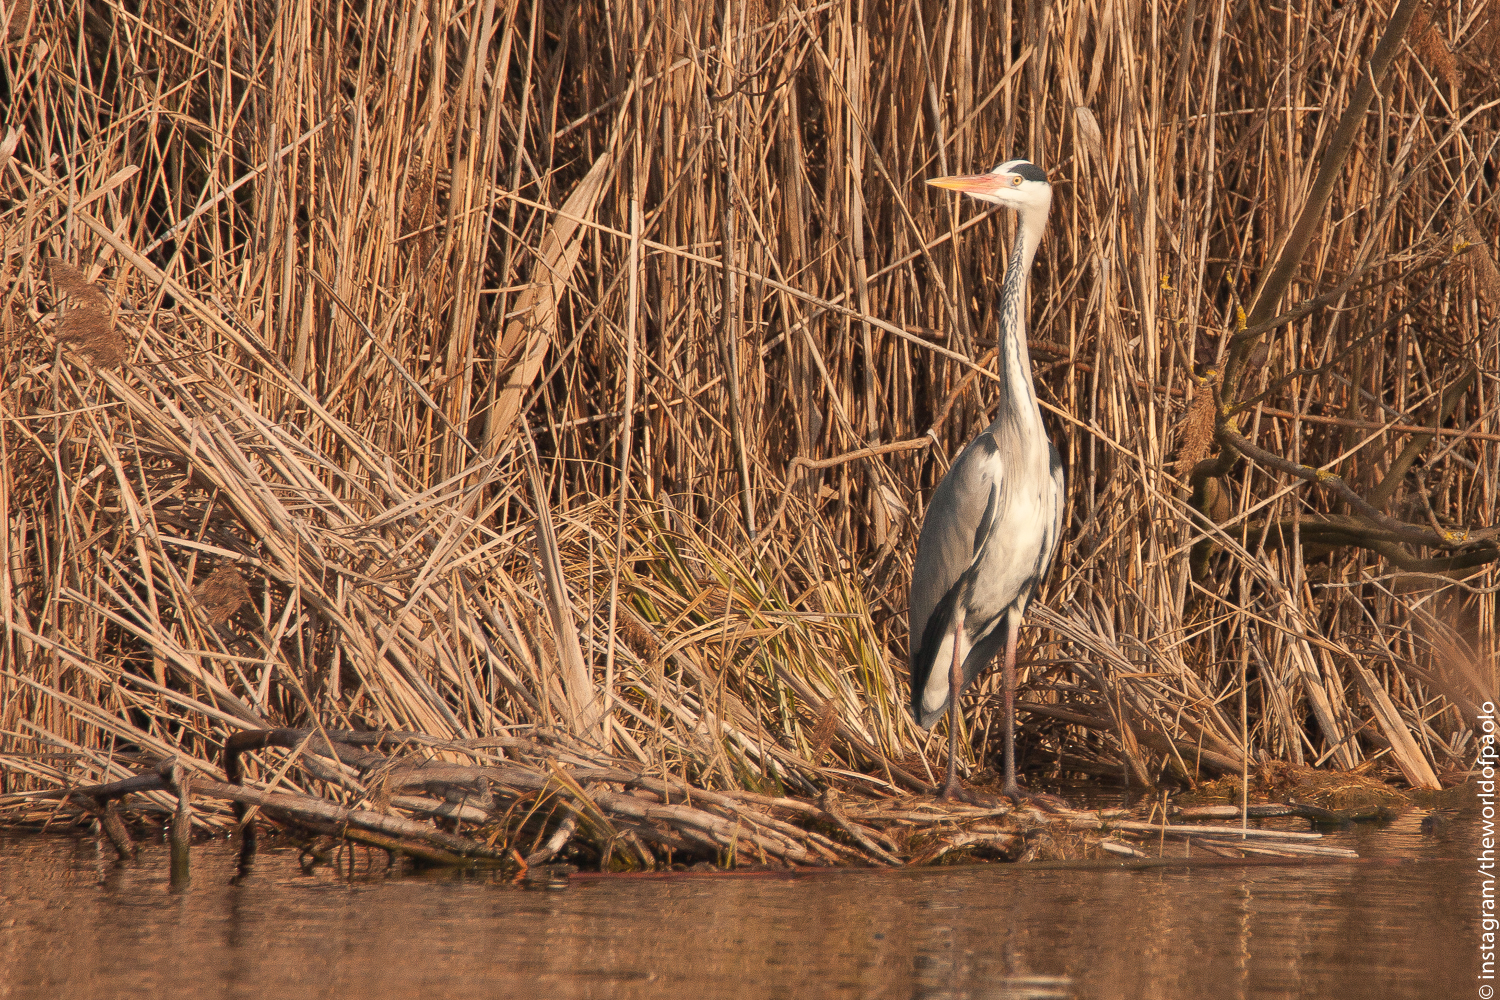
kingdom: Animalia
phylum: Chordata
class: Aves
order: Pelecaniformes
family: Ardeidae
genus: Ardea
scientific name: Ardea cinerea
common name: Grey heron
